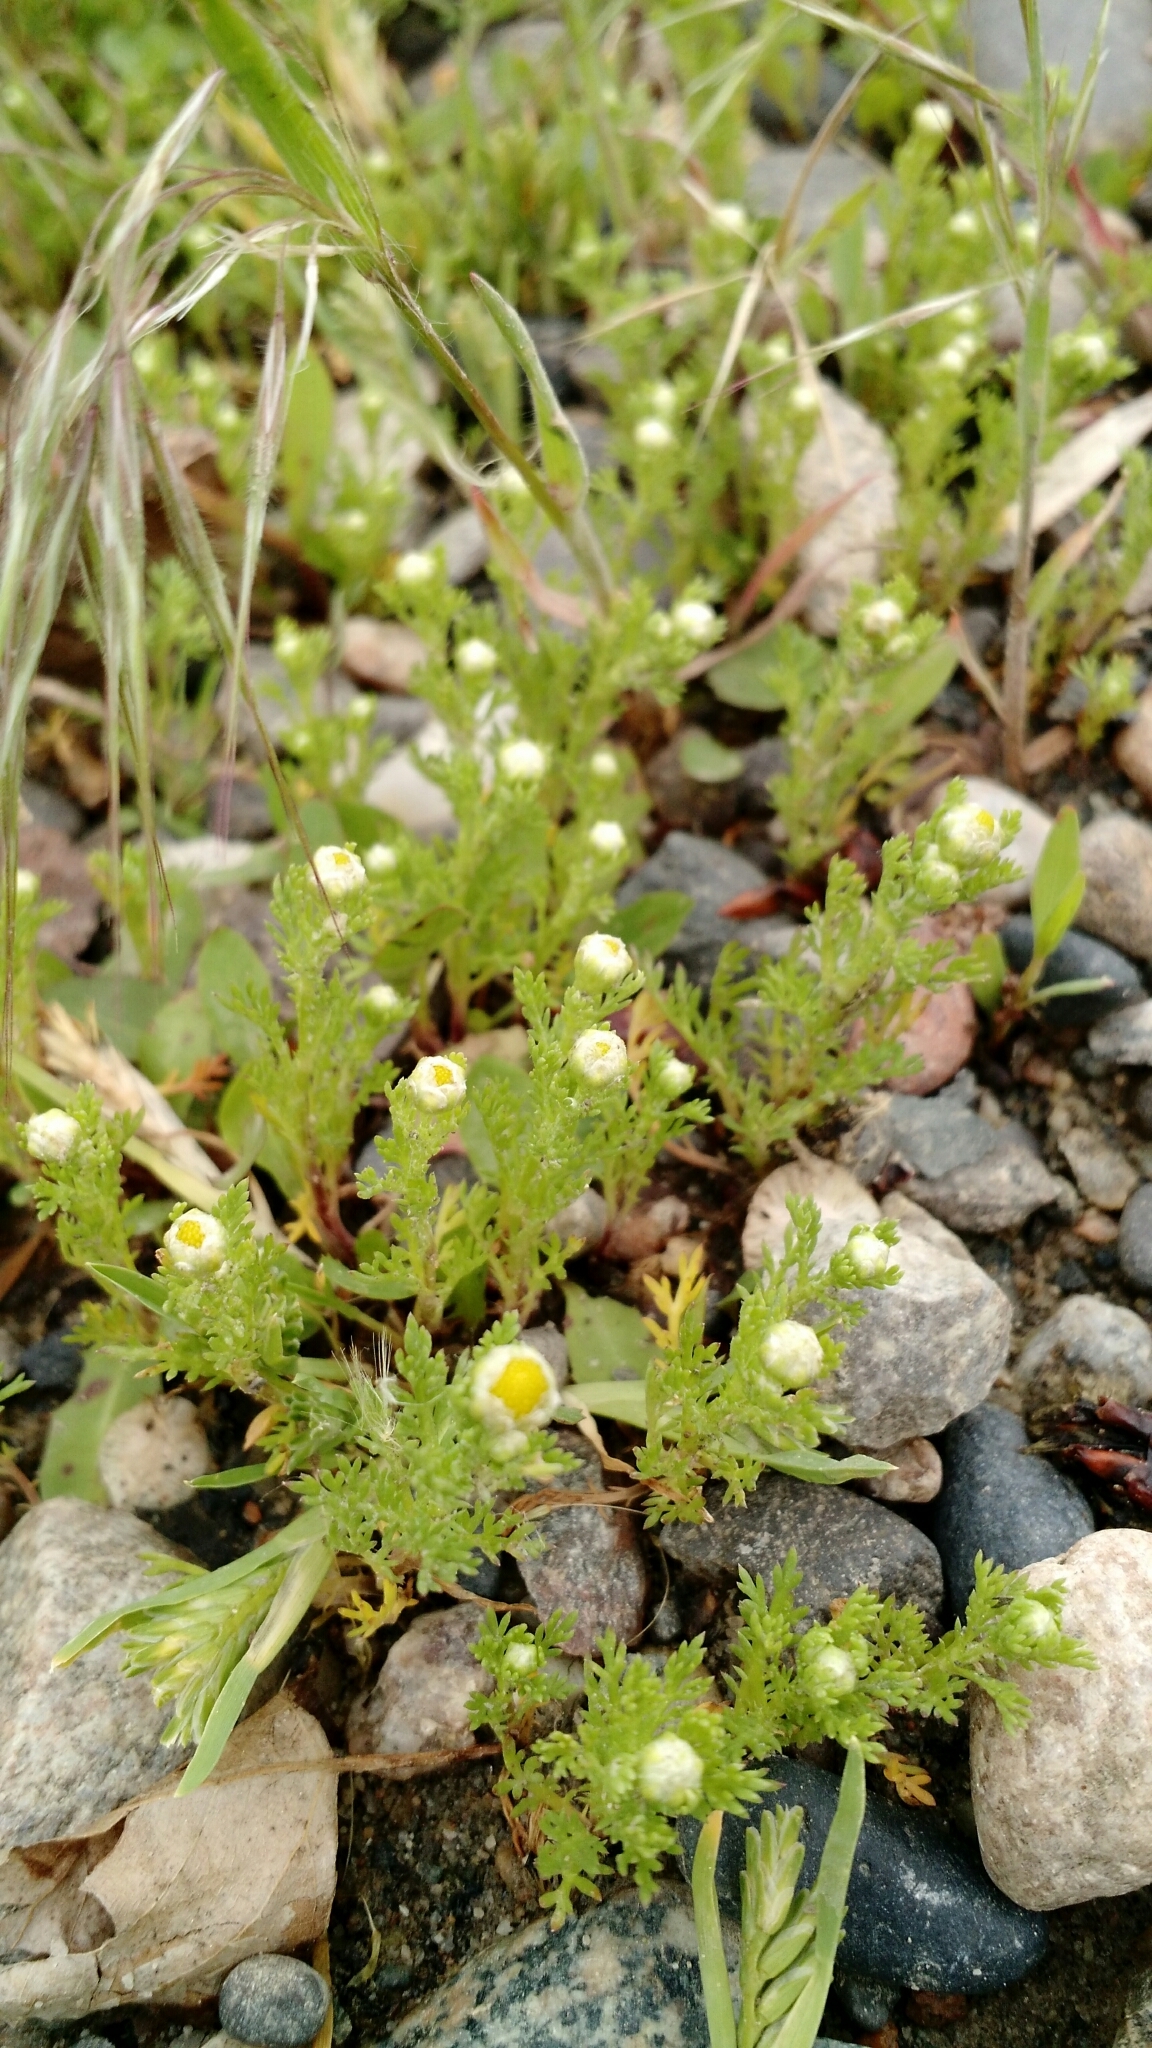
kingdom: Plantae
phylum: Tracheophyta
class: Magnoliopsida
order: Asterales
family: Asteraceae
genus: Matricaria
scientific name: Matricaria discoidea
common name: Disc mayweed
